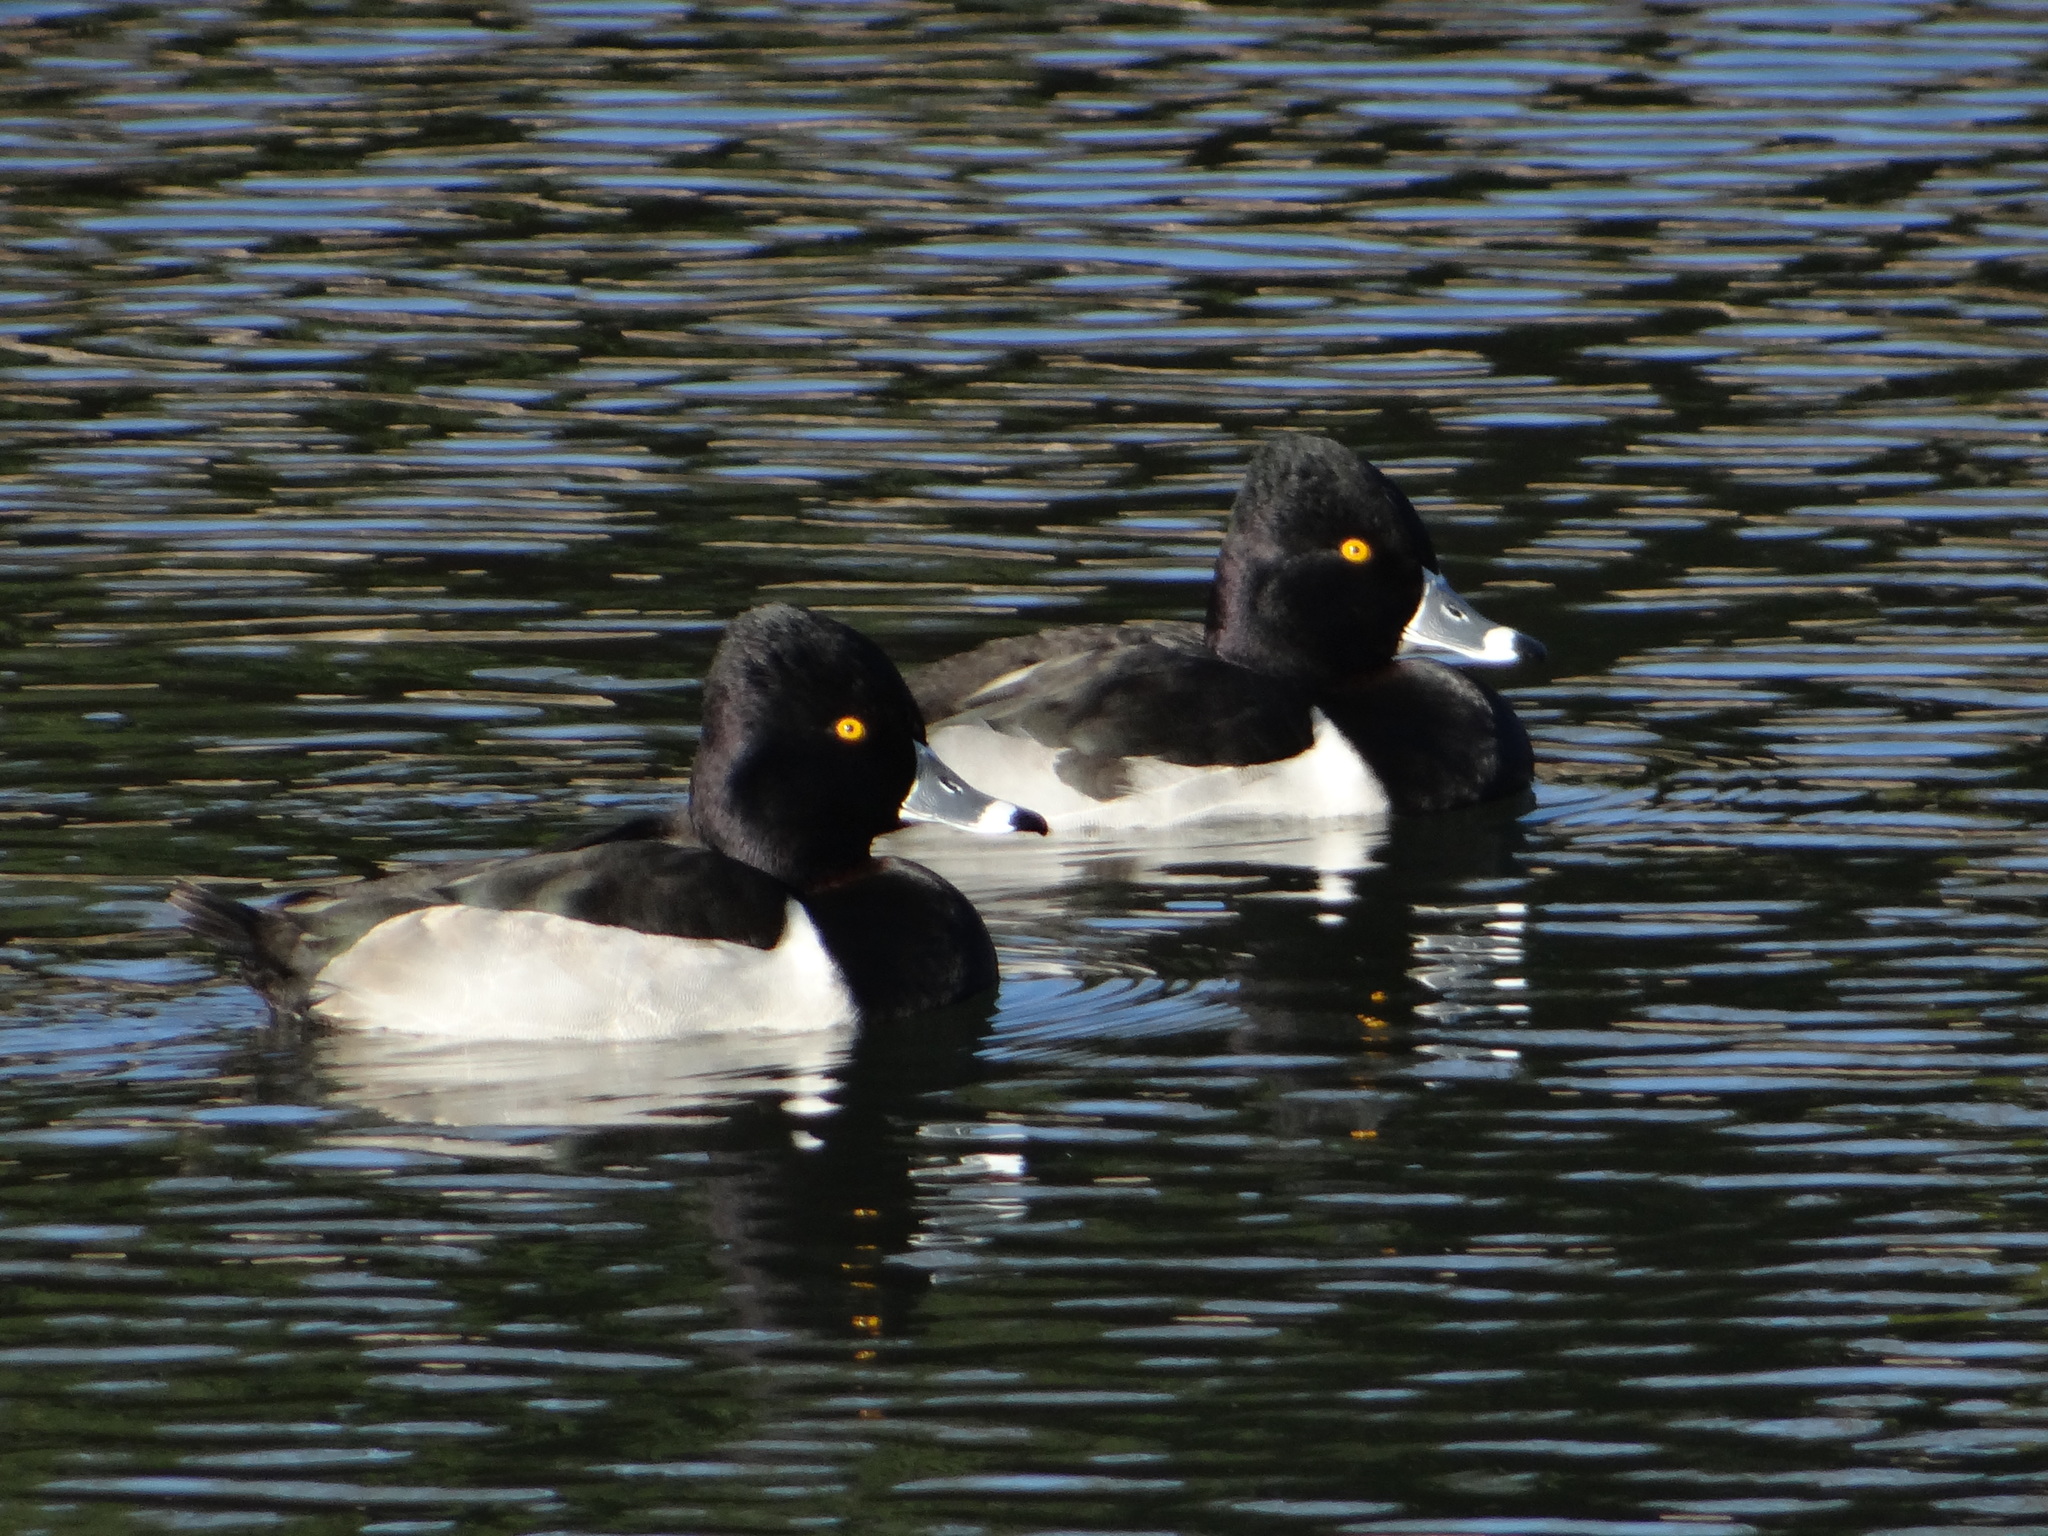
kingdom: Animalia
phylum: Chordata
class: Aves
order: Anseriformes
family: Anatidae
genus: Aythya
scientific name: Aythya collaris
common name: Ring-necked duck
